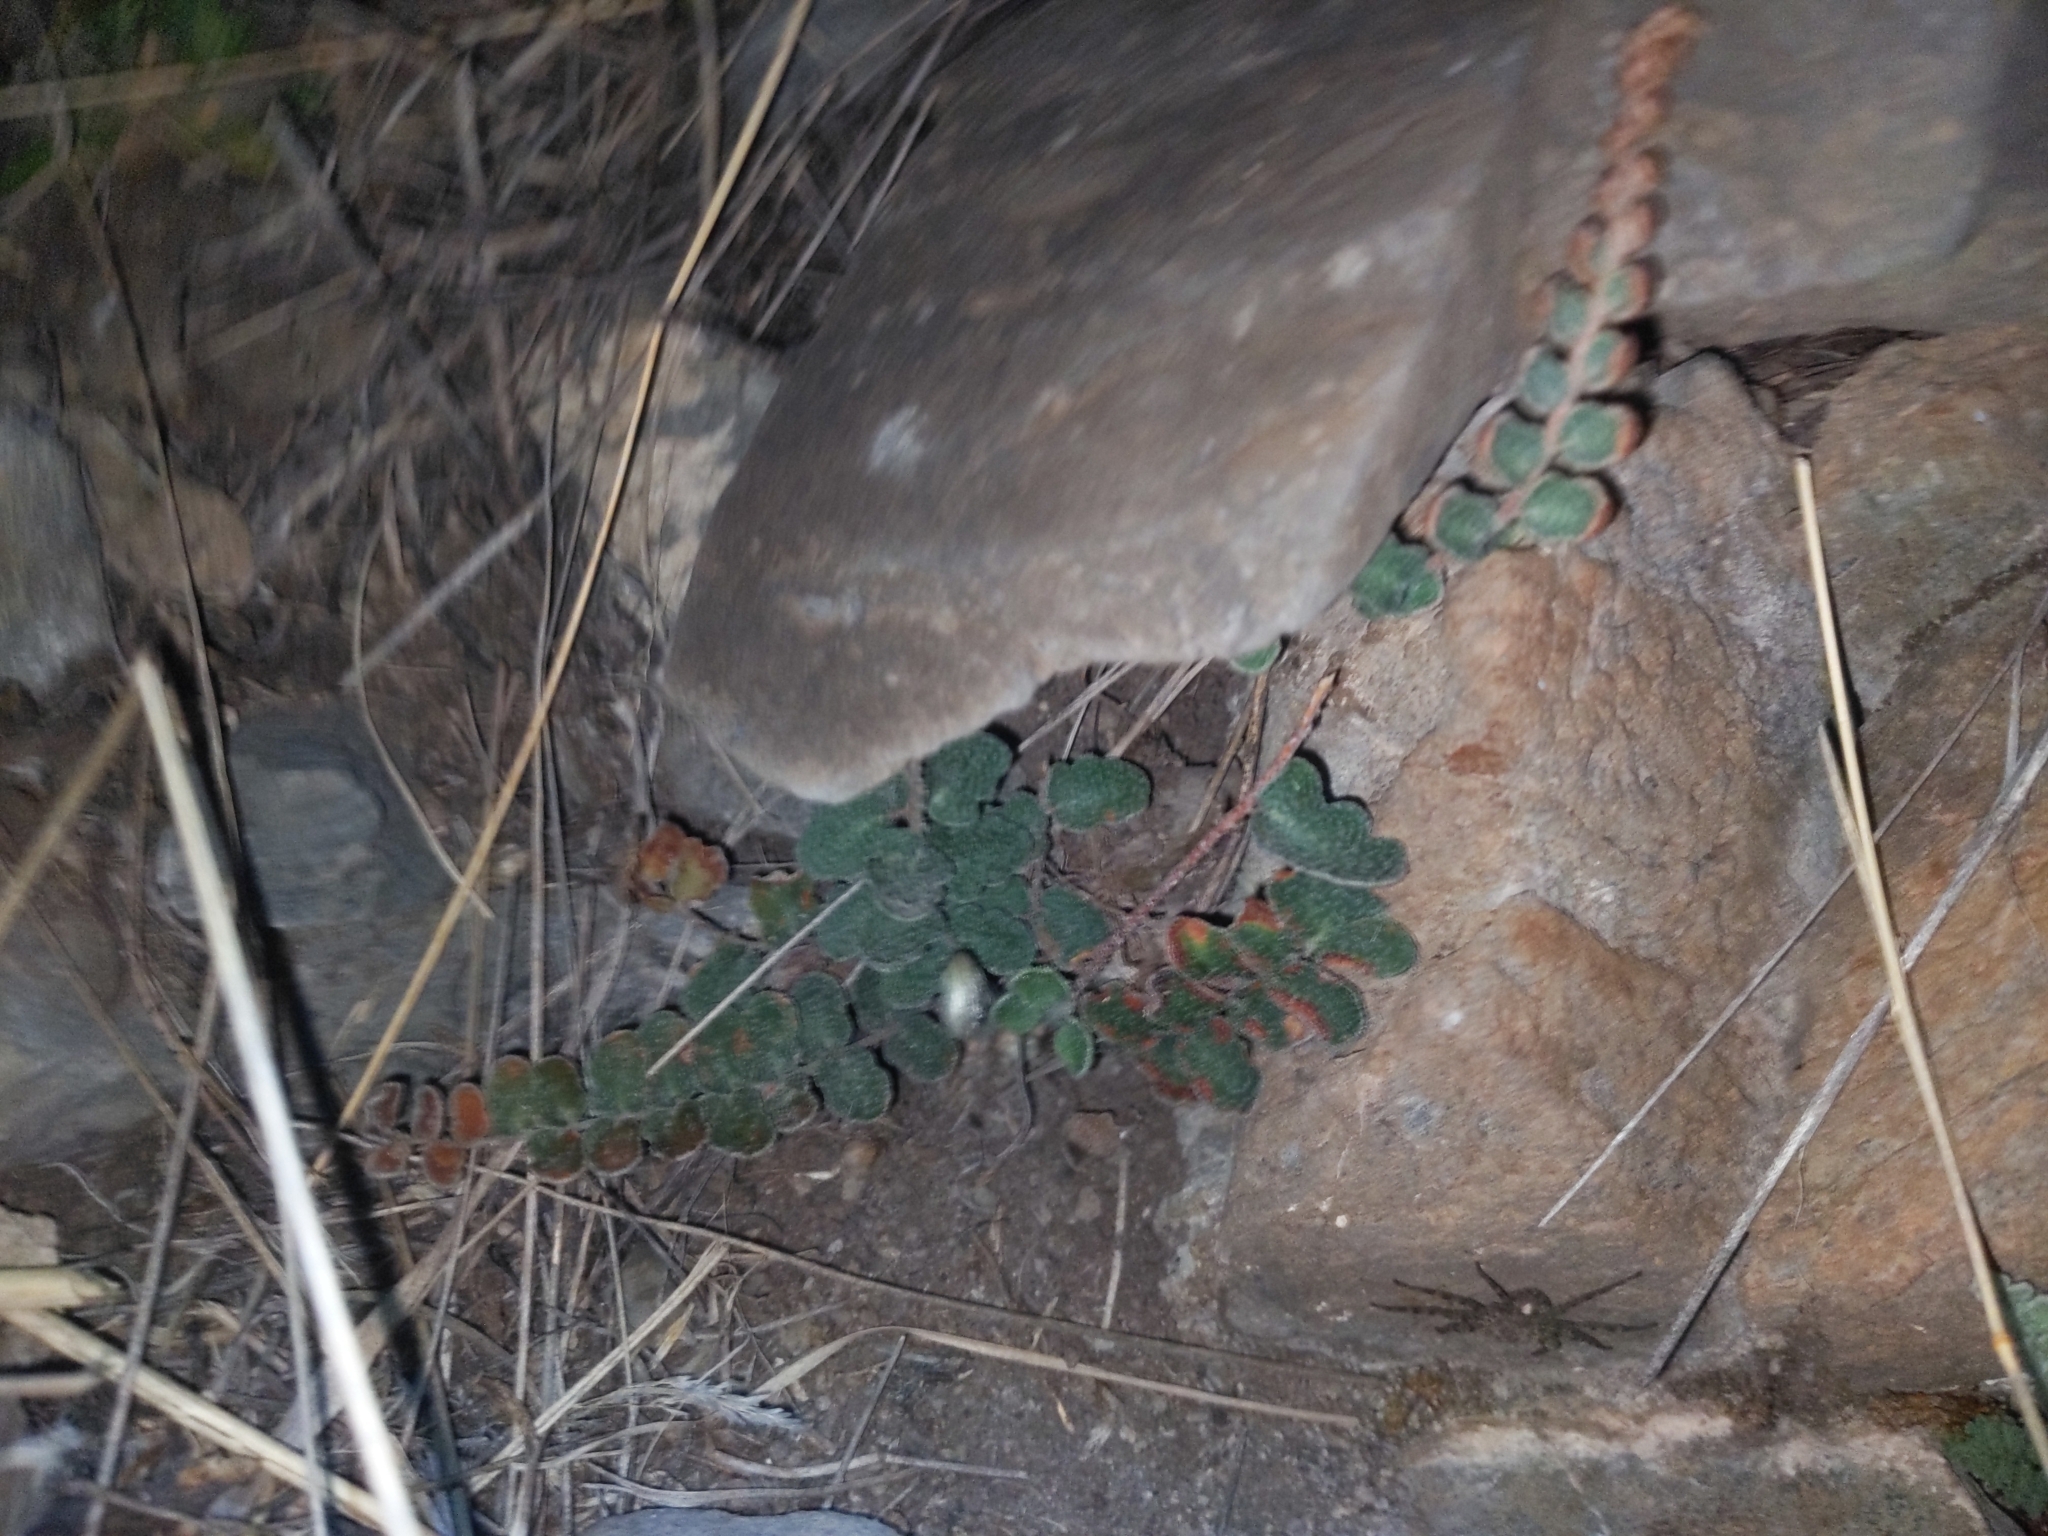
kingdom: Plantae
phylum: Tracheophyta
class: Polypodiopsida
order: Polypodiales
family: Pteridaceae
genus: Astrolepis
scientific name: Astrolepis cochisensis
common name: Scaly cloak fern
